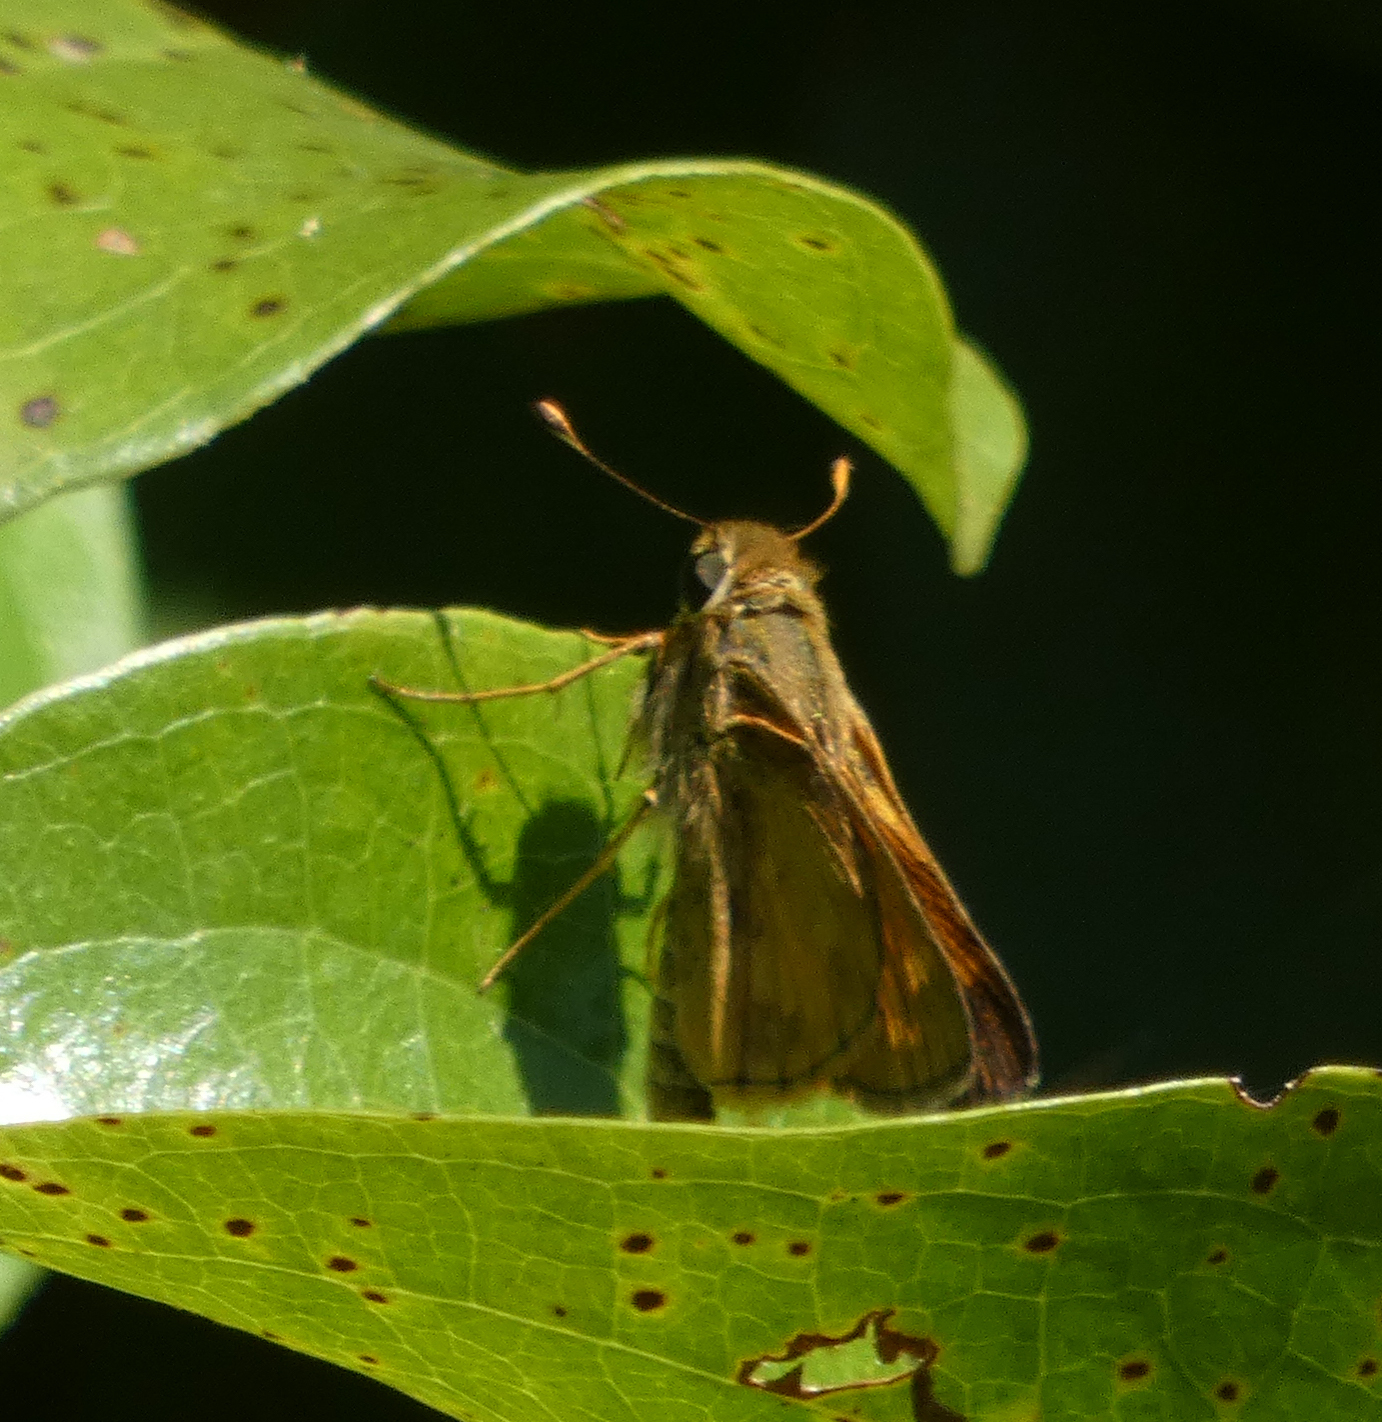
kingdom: Animalia
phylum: Arthropoda
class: Insecta
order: Lepidoptera
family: Hesperiidae
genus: Atalopedes
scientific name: Atalopedes
